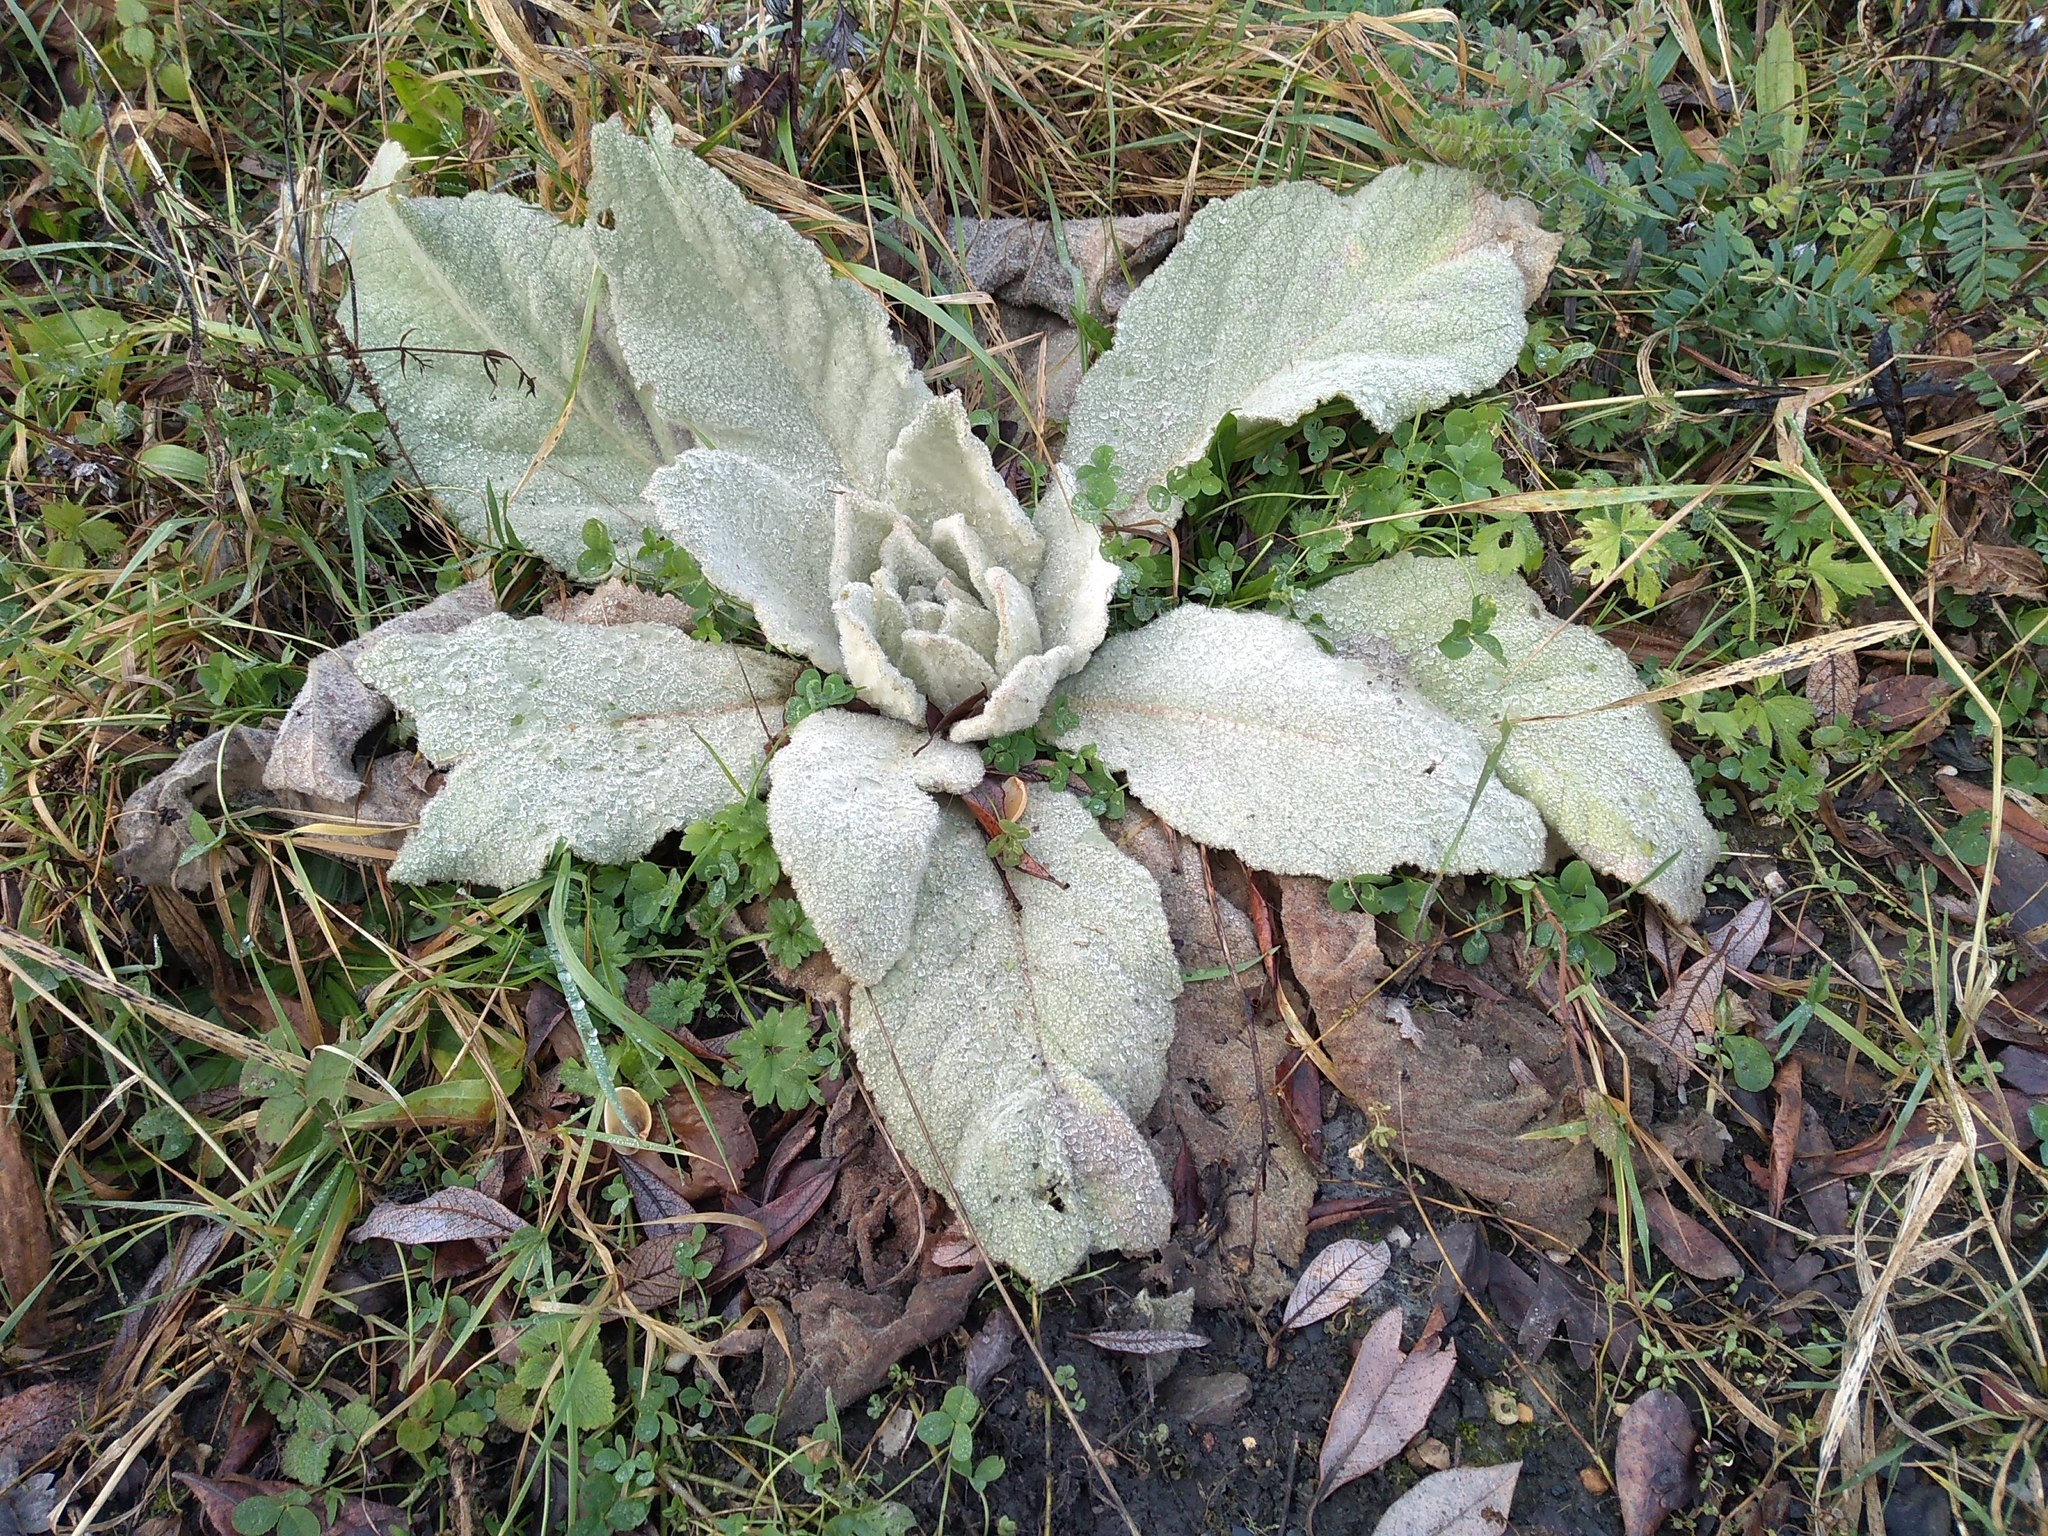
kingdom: Plantae
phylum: Tracheophyta
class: Magnoliopsida
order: Lamiales
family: Scrophulariaceae
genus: Verbascum
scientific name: Verbascum thapsus
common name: Common mullein
